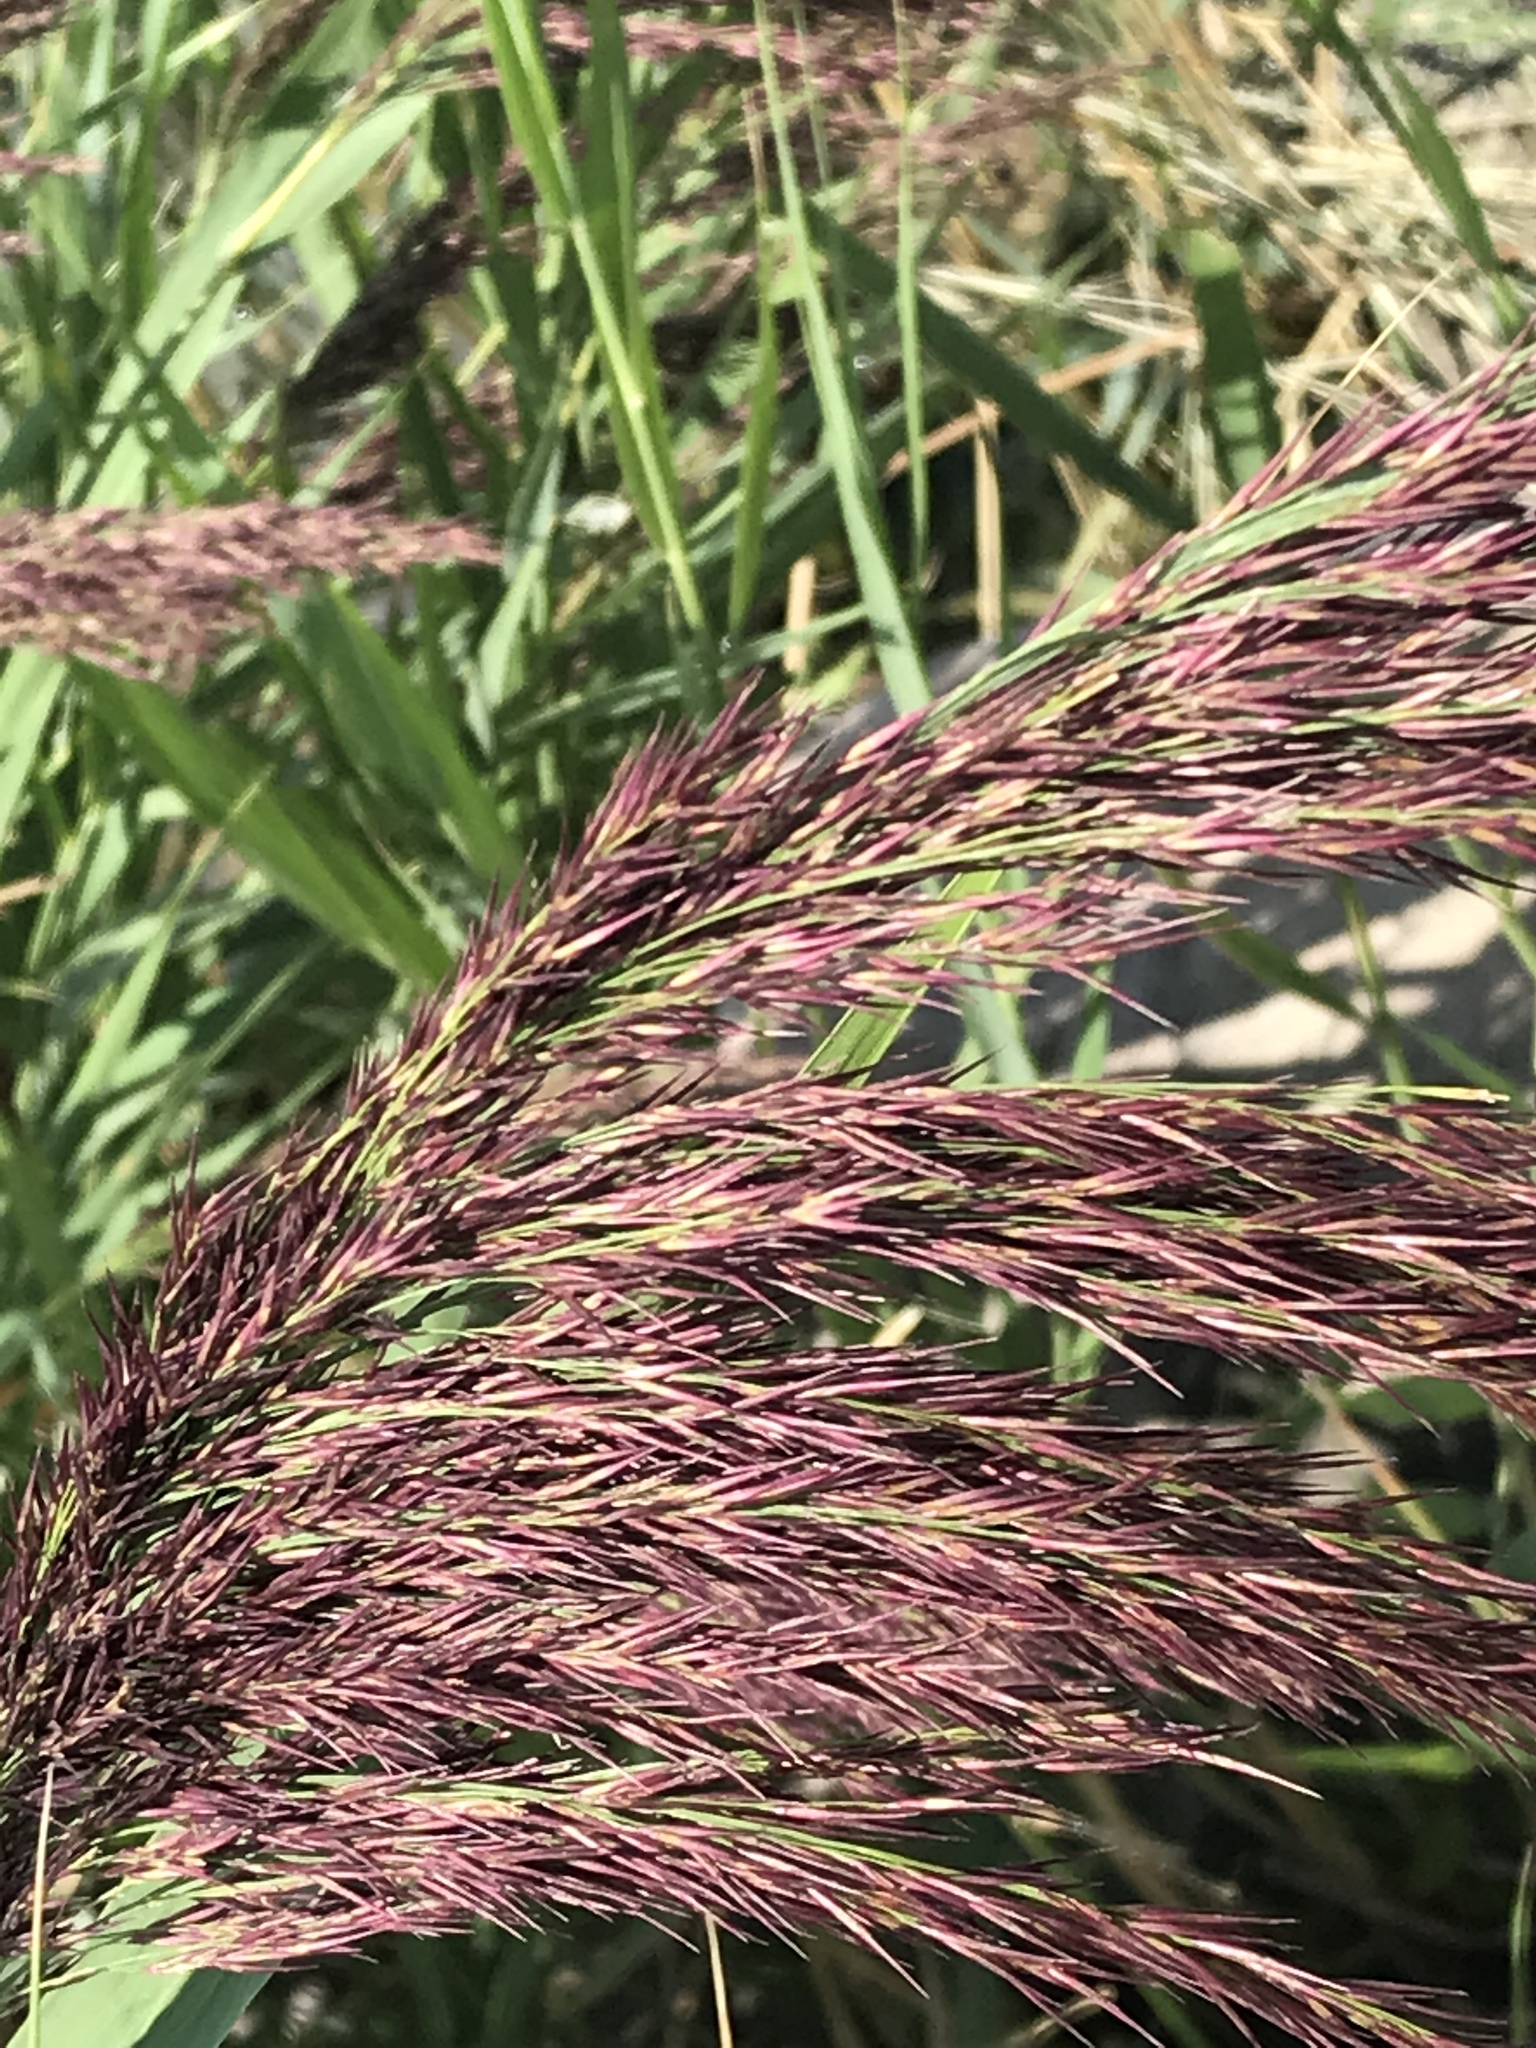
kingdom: Plantae
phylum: Tracheophyta
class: Liliopsida
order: Poales
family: Poaceae
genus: Phragmites
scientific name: Phragmites australis
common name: Common reed
